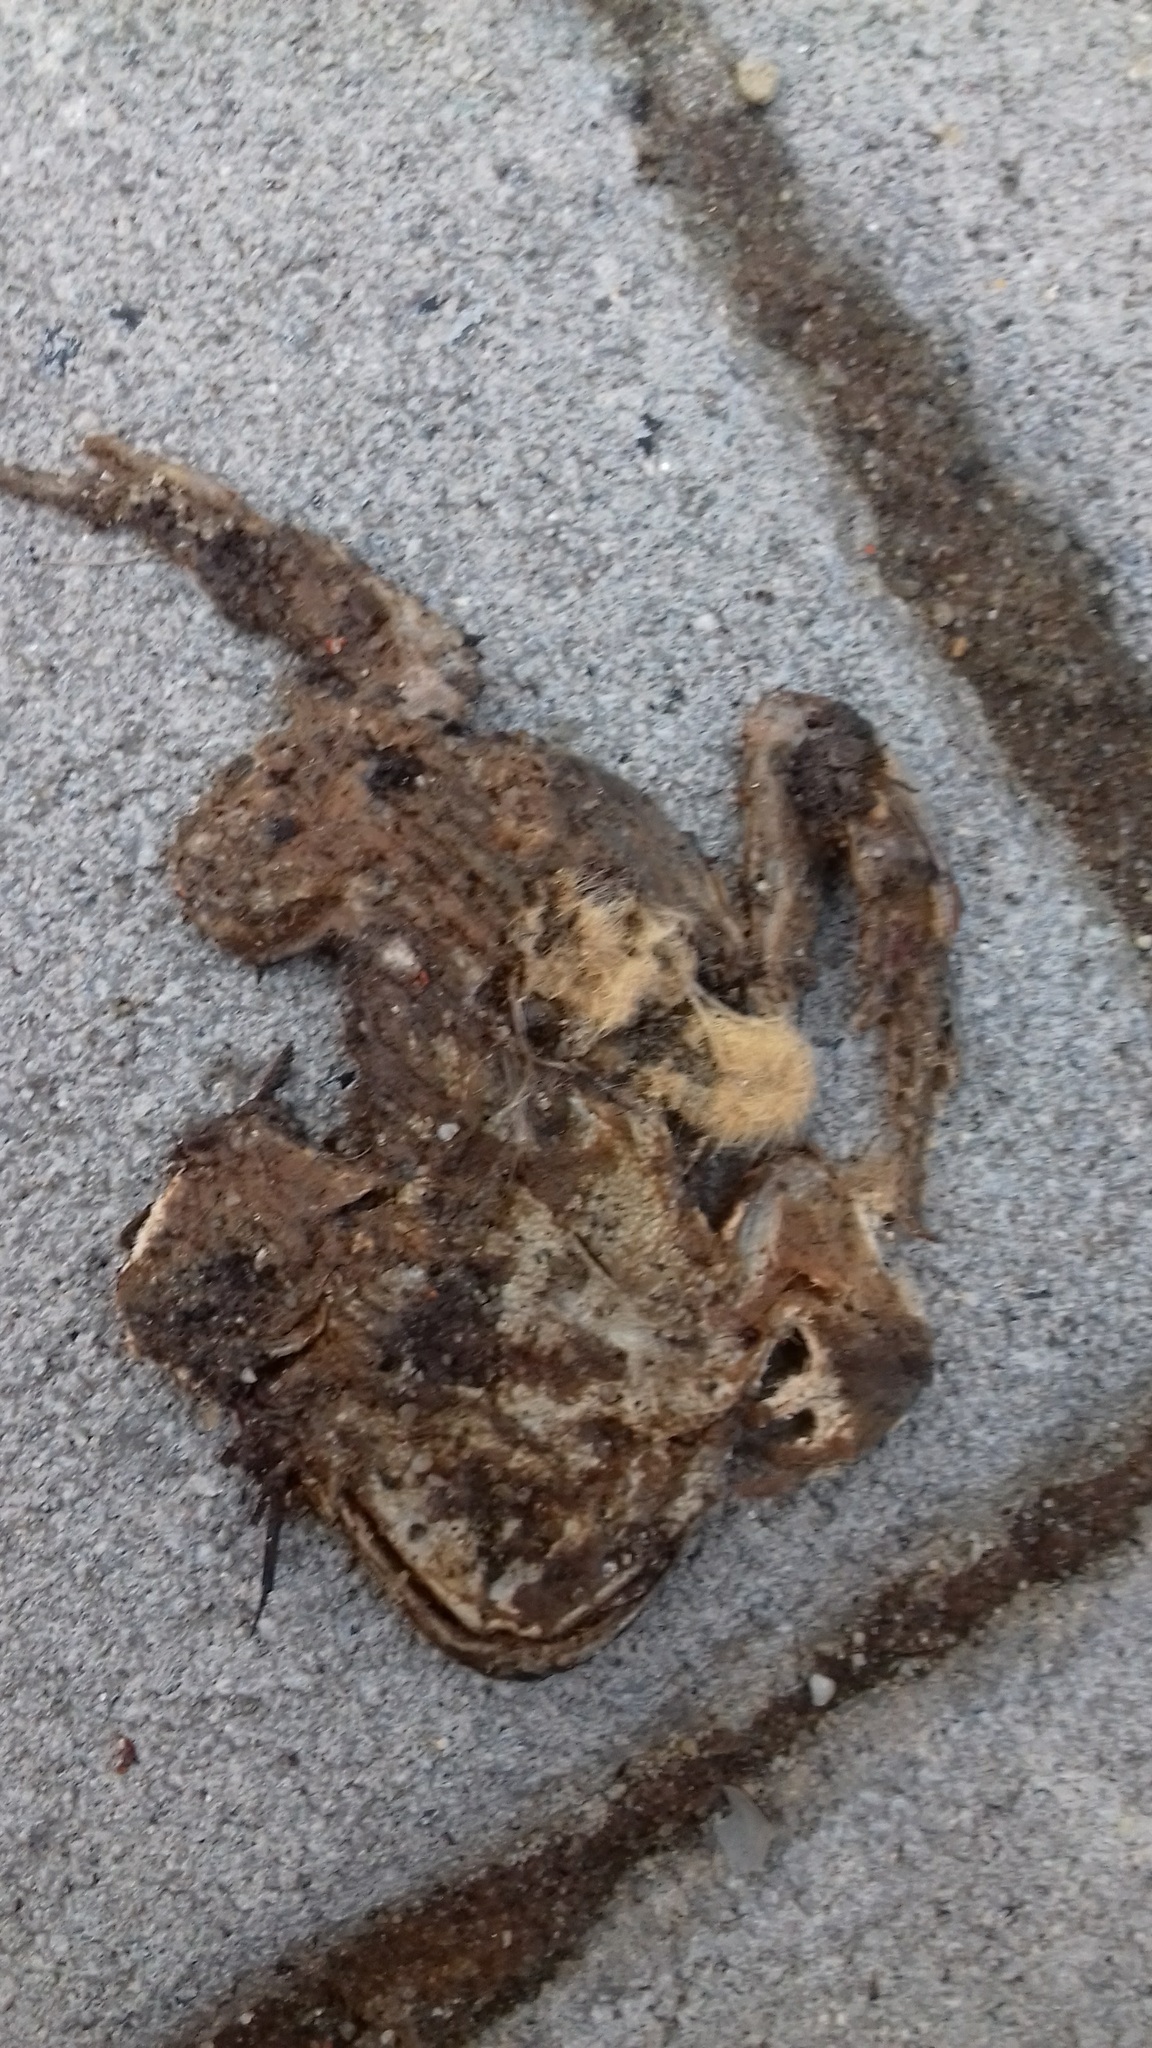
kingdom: Animalia
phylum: Chordata
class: Amphibia
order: Anura
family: Bufonidae
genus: Bufo
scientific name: Bufo bufo
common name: Common toad
